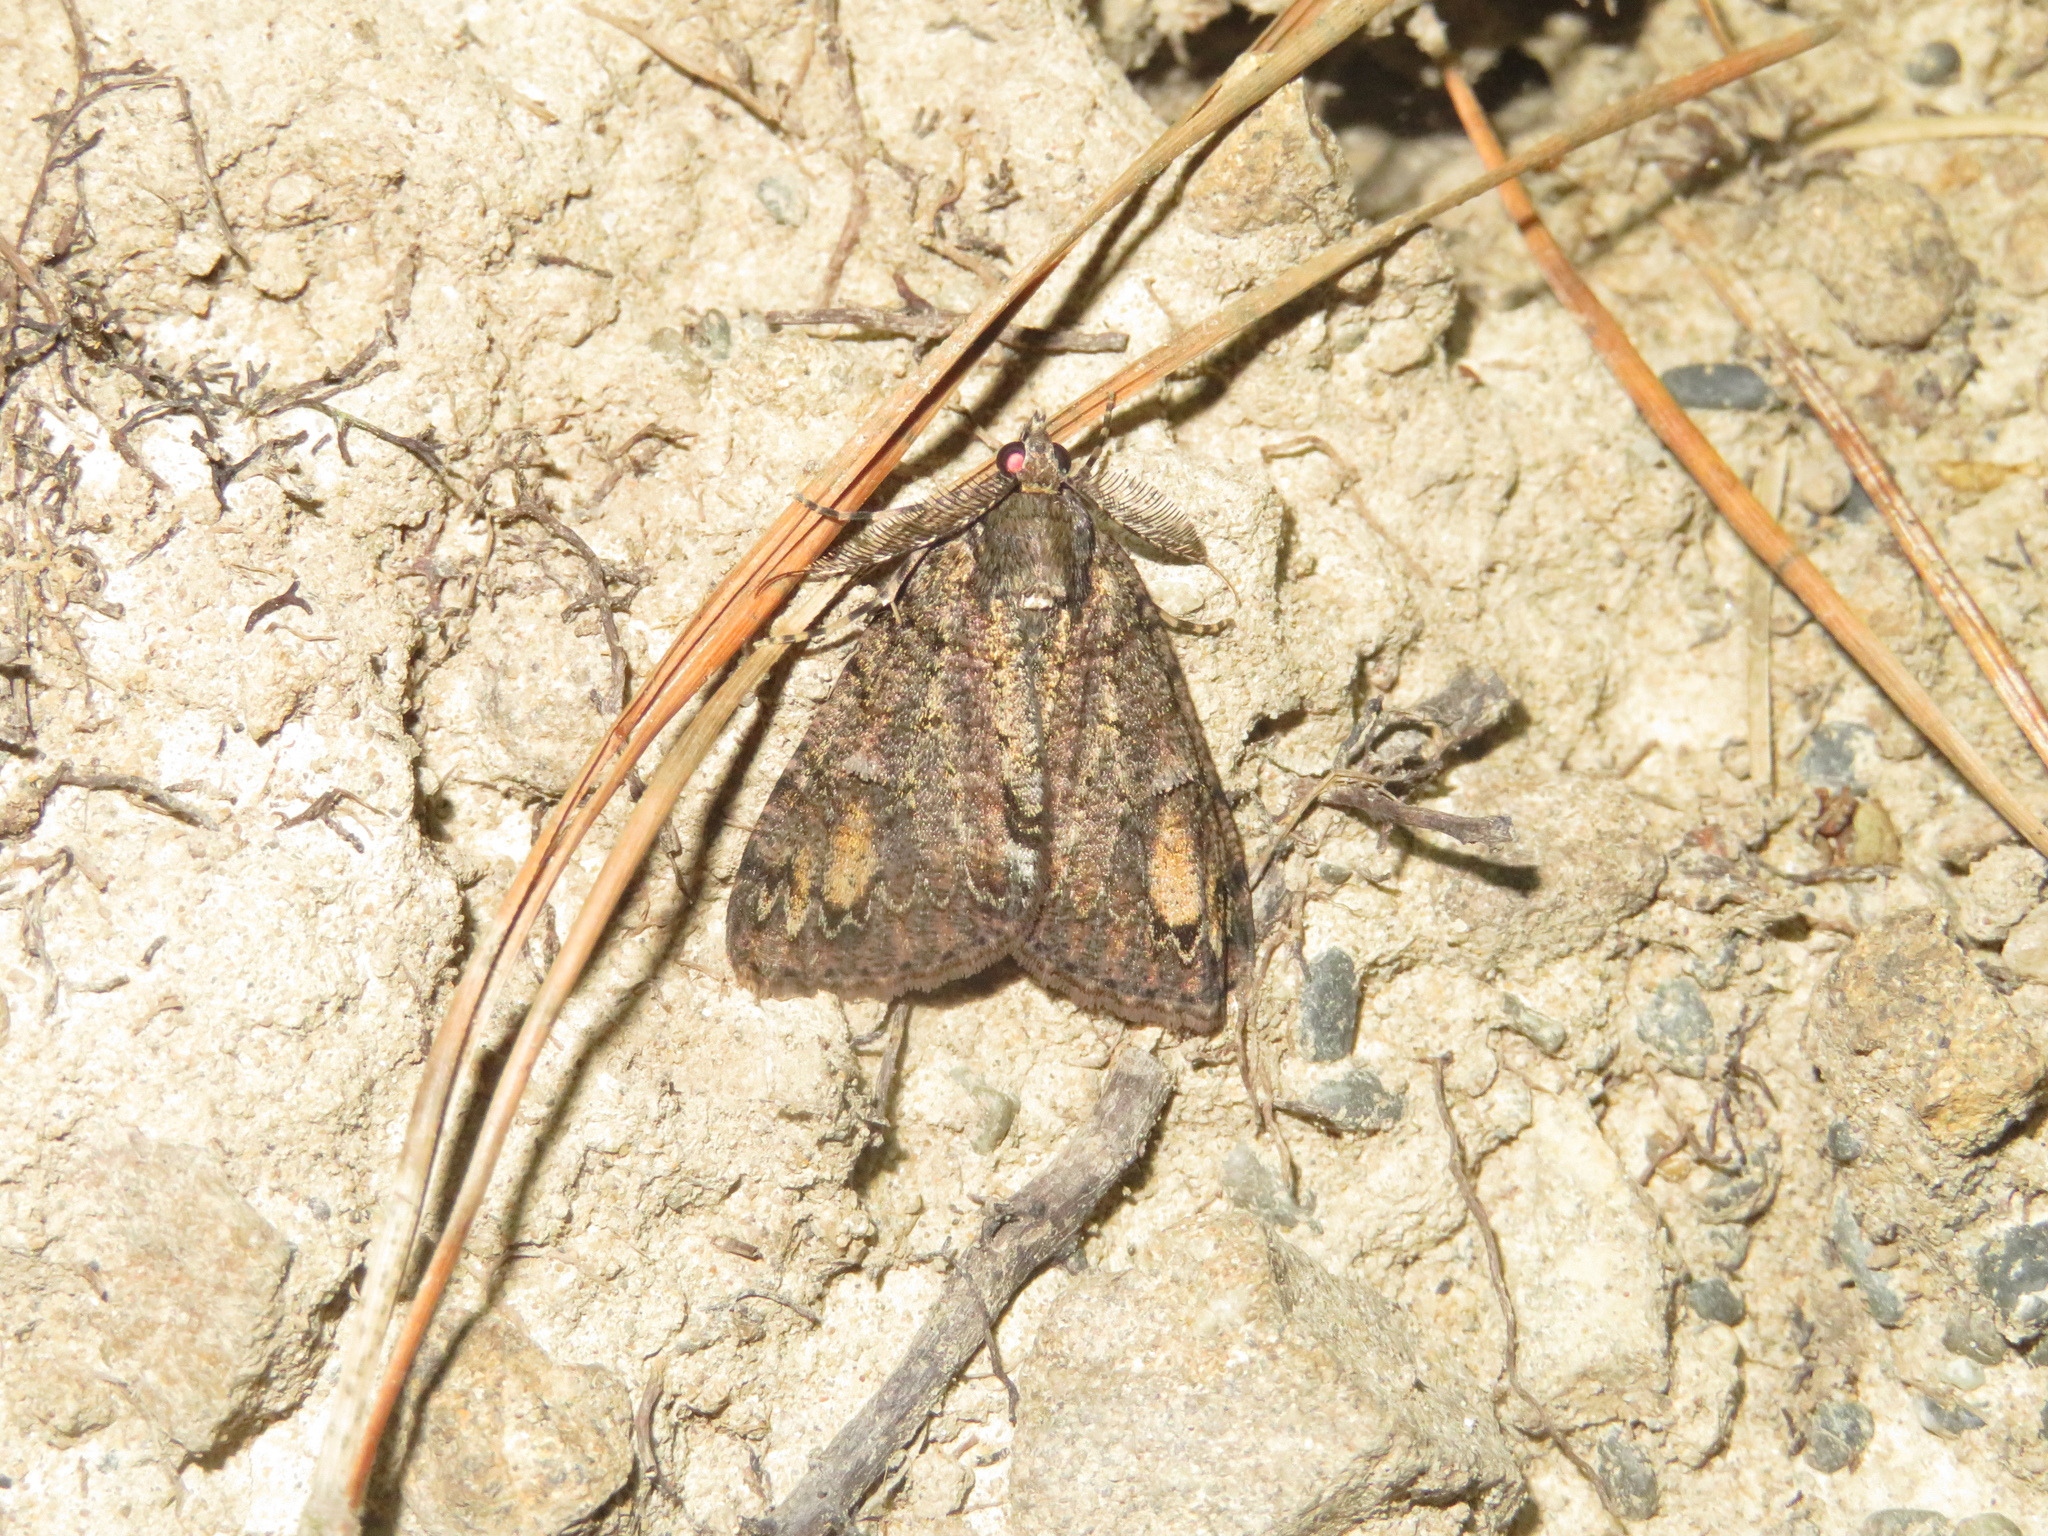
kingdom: Animalia
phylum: Arthropoda
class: Insecta
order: Lepidoptera
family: Geometridae
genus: Pseudocoremia
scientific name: Pseudocoremia suavis
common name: Common forest looper
